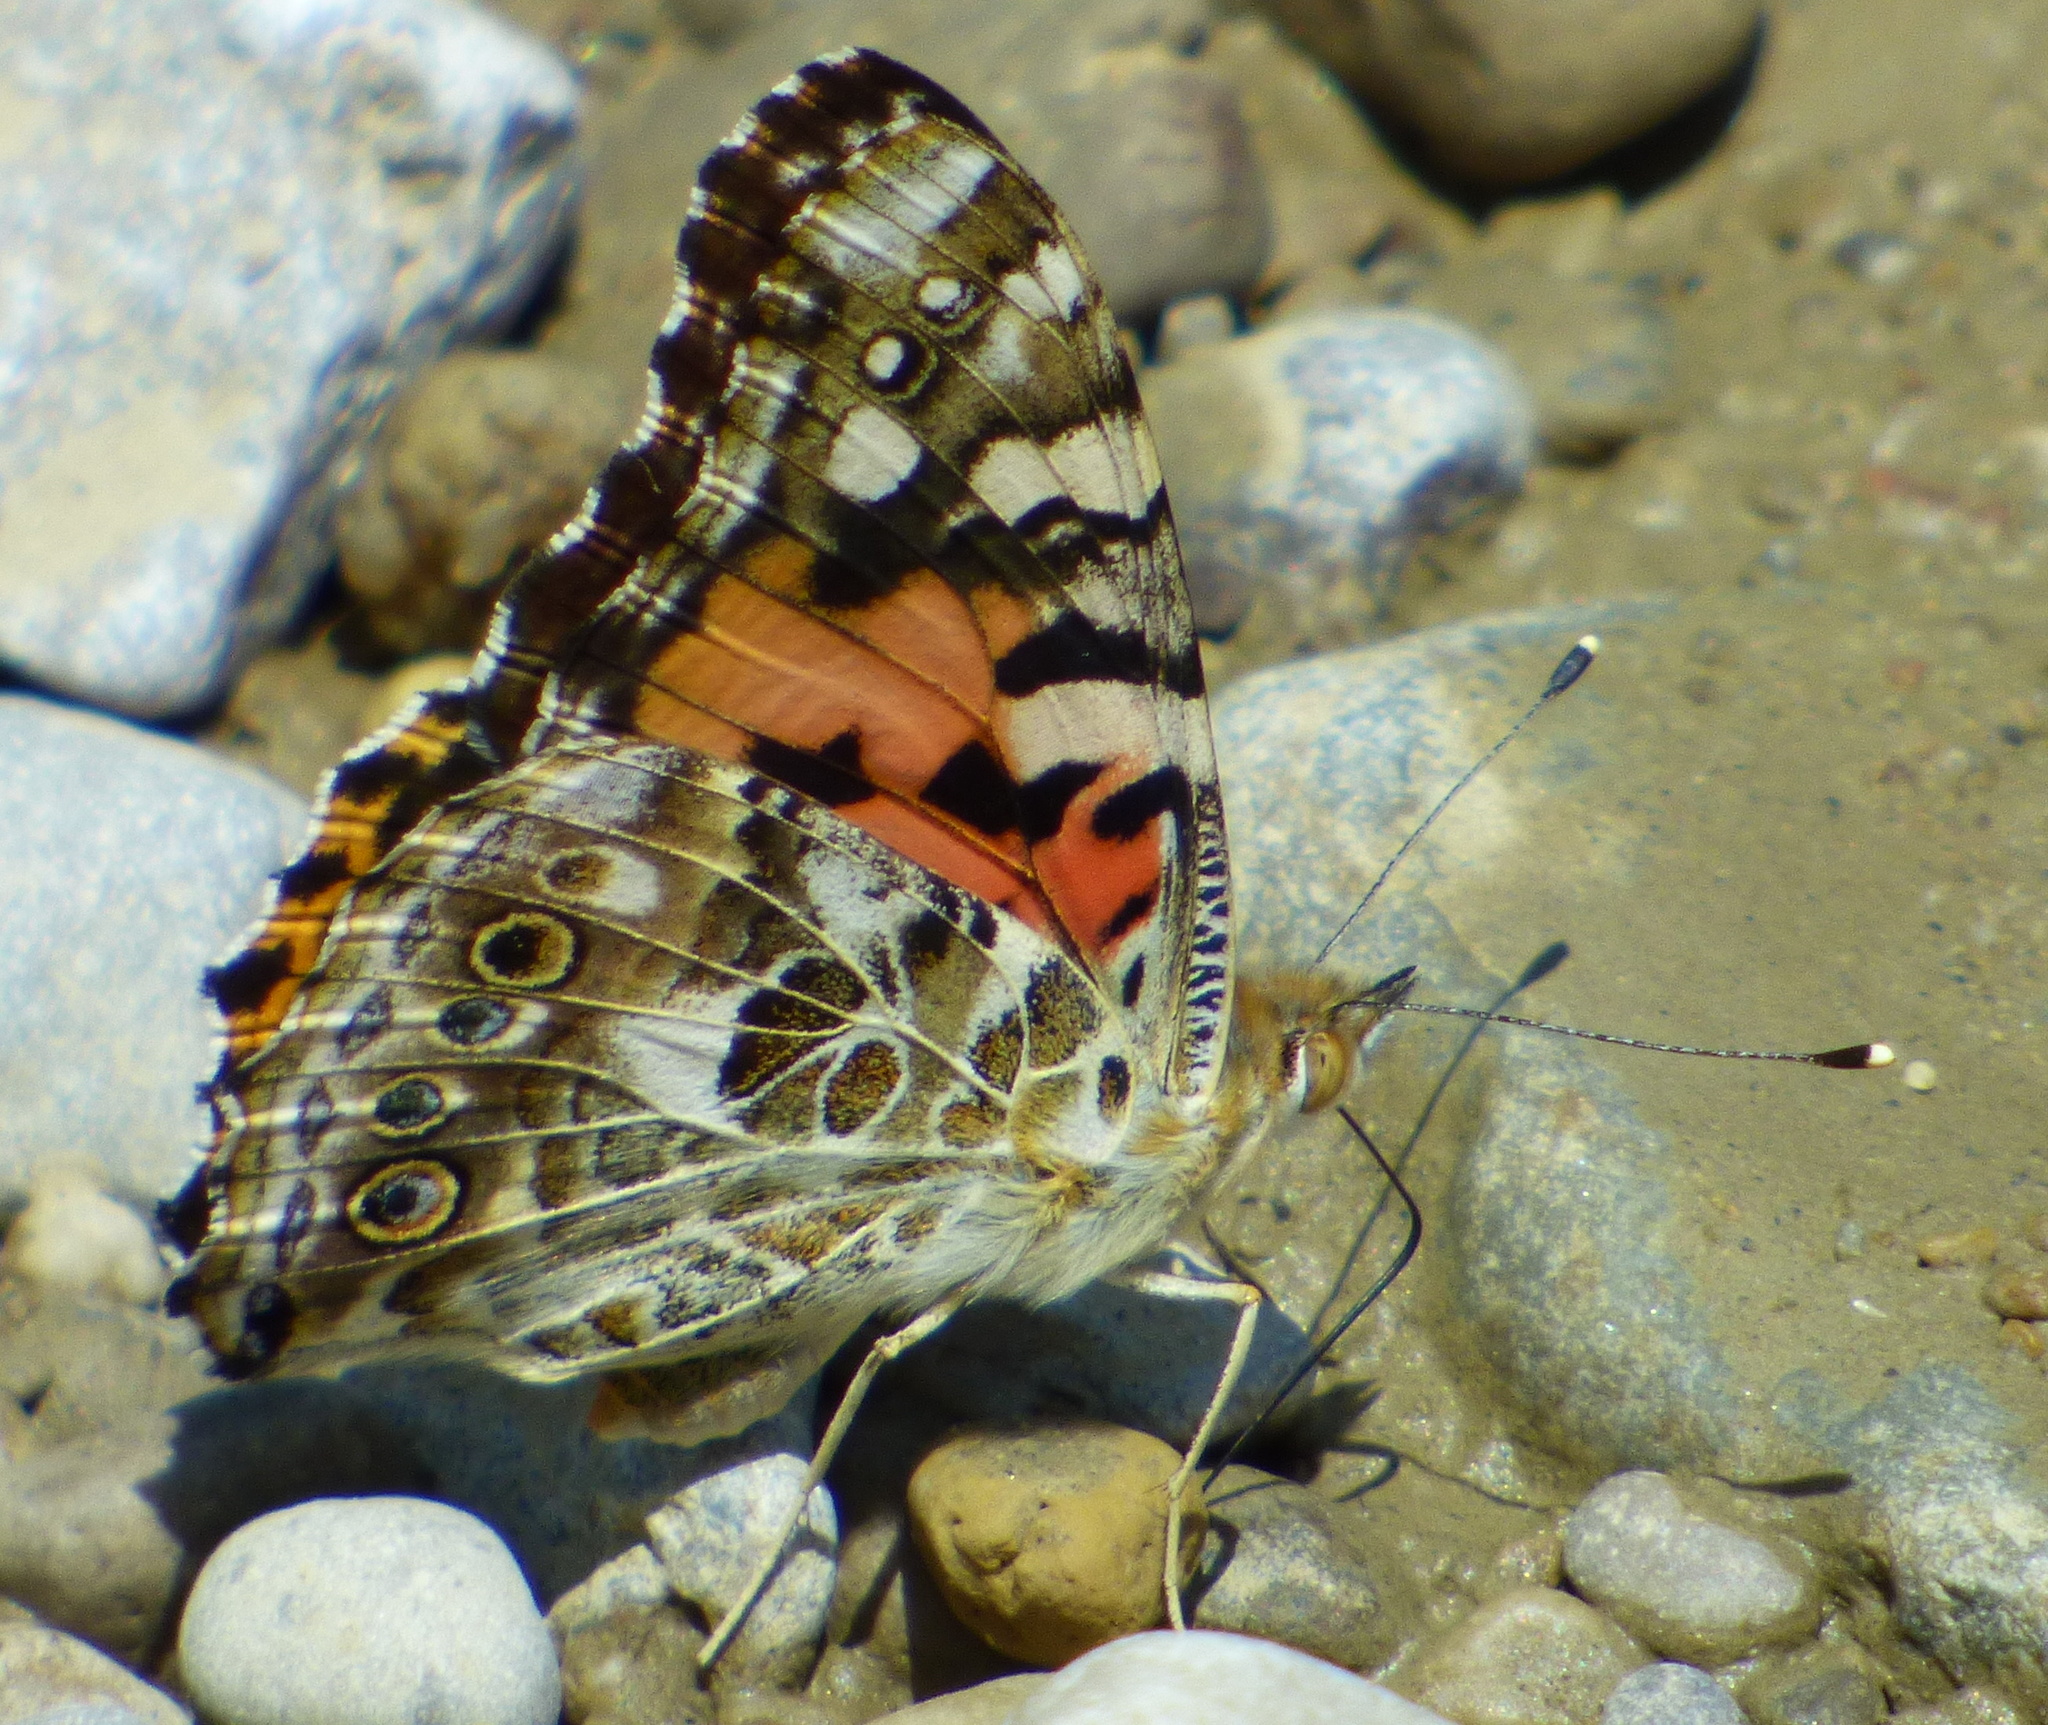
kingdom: Animalia
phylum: Arthropoda
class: Insecta
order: Lepidoptera
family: Nymphalidae
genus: Vanessa
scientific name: Vanessa cardui
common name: Painted lady
